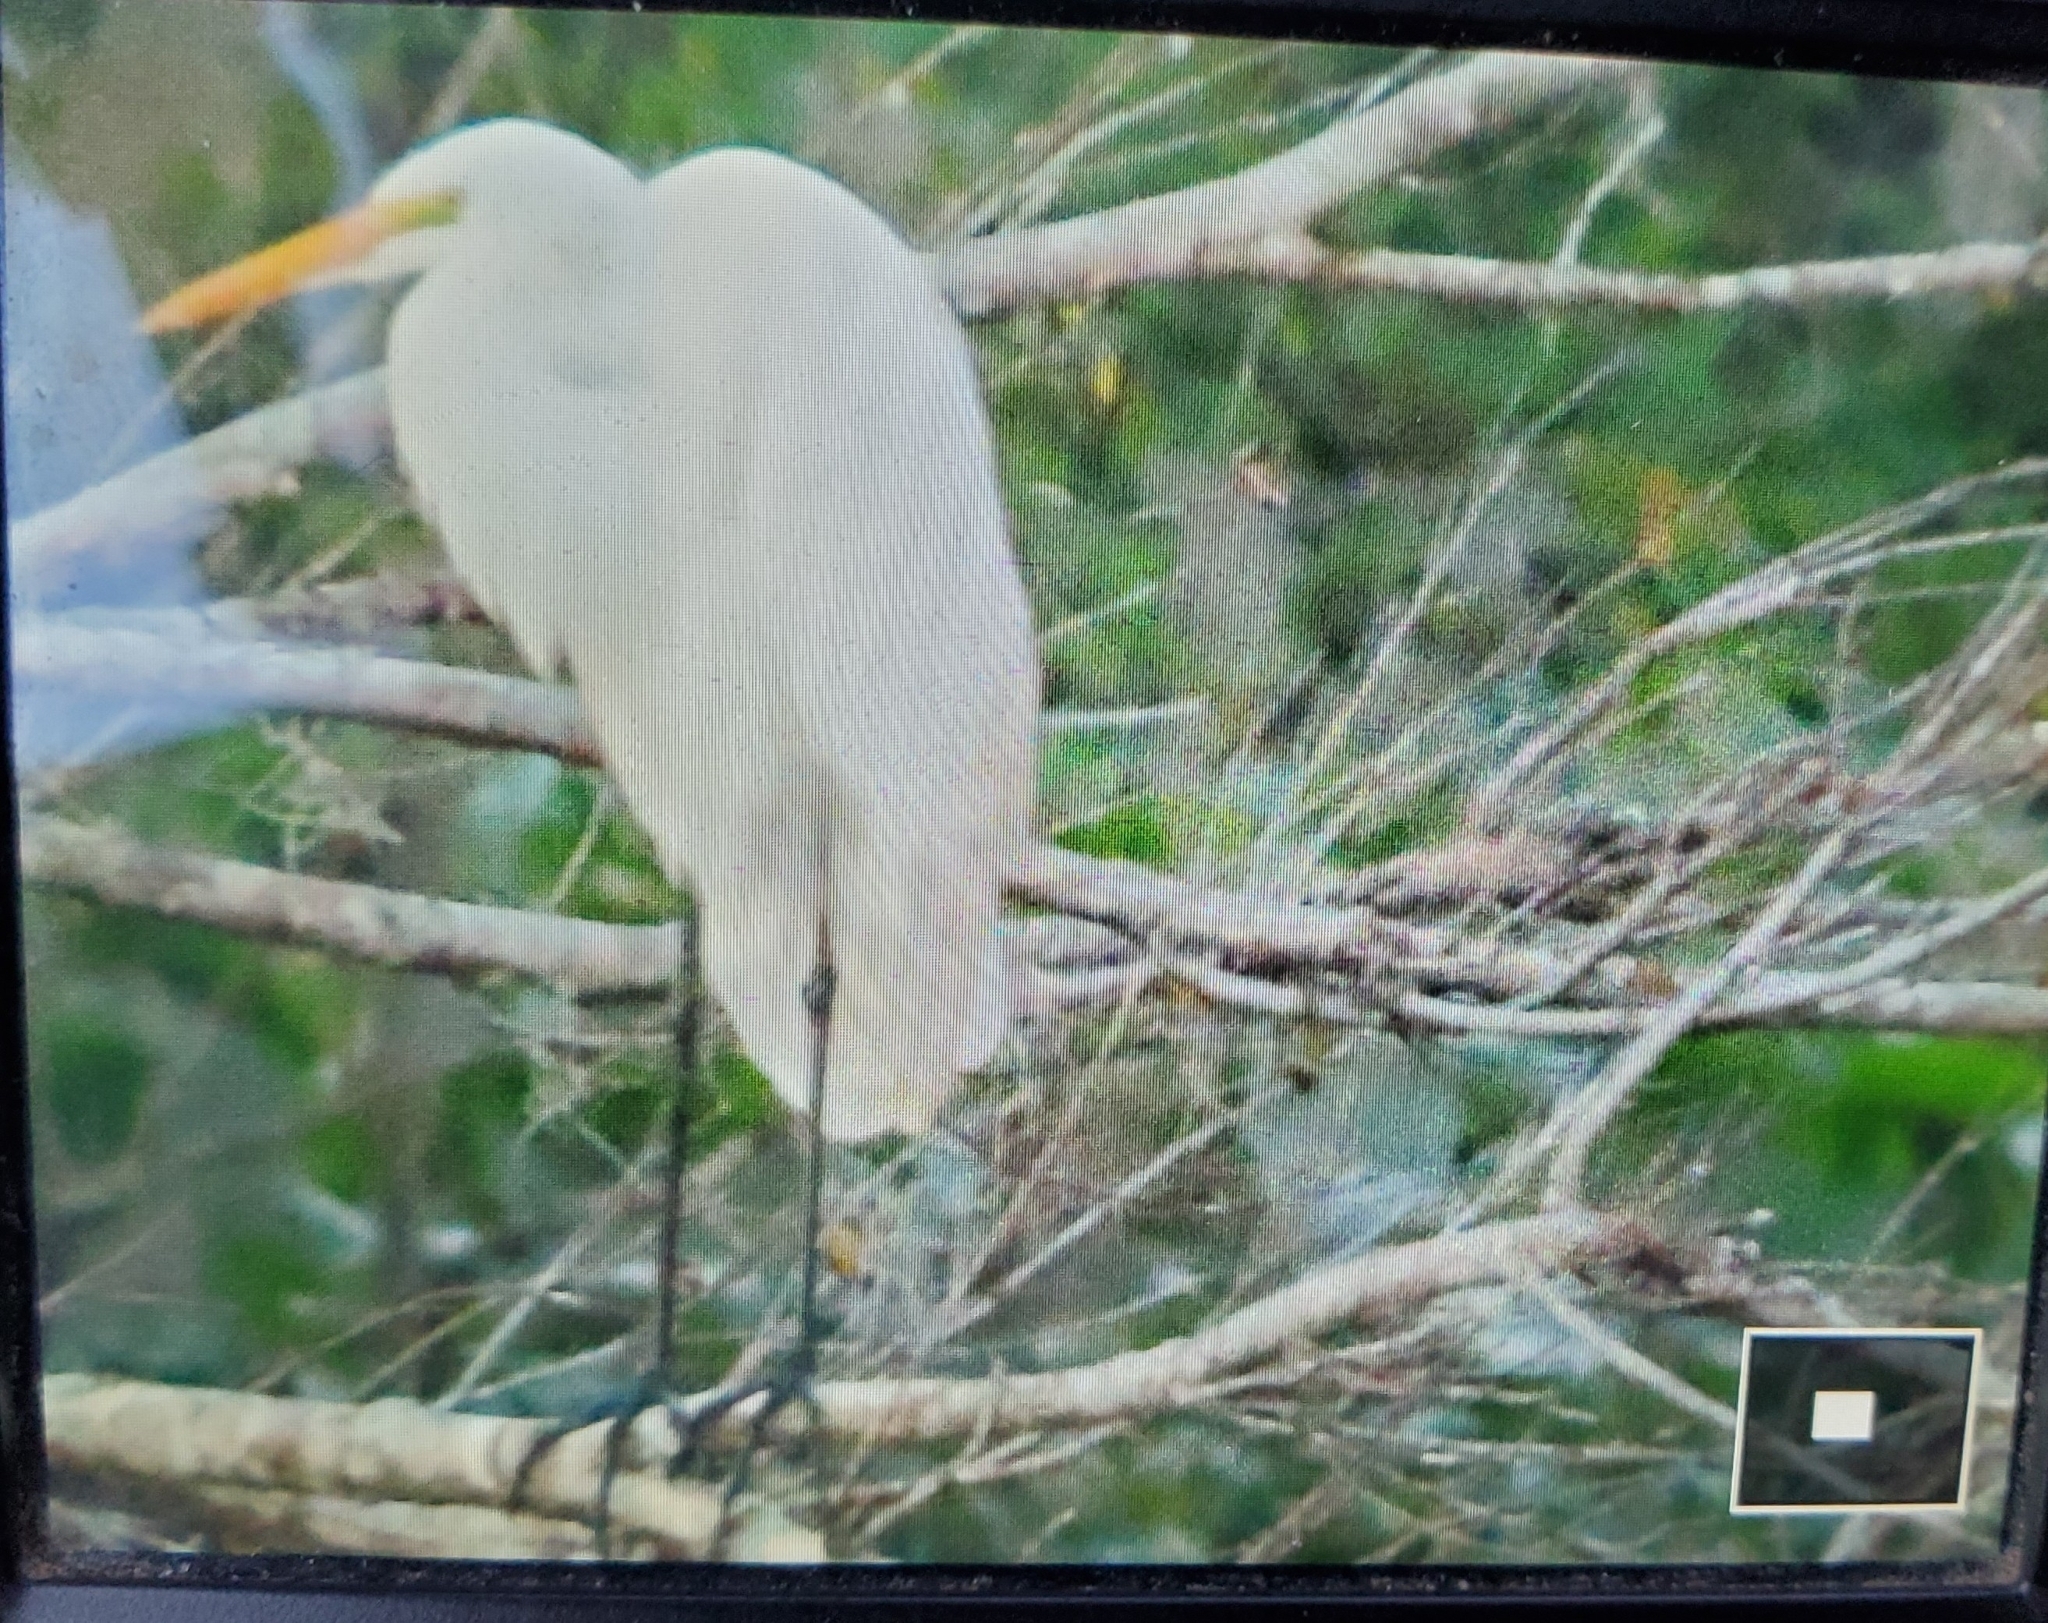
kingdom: Animalia
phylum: Chordata
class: Aves
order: Pelecaniformes
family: Ardeidae
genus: Ardea
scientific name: Ardea alba
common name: Great egret
